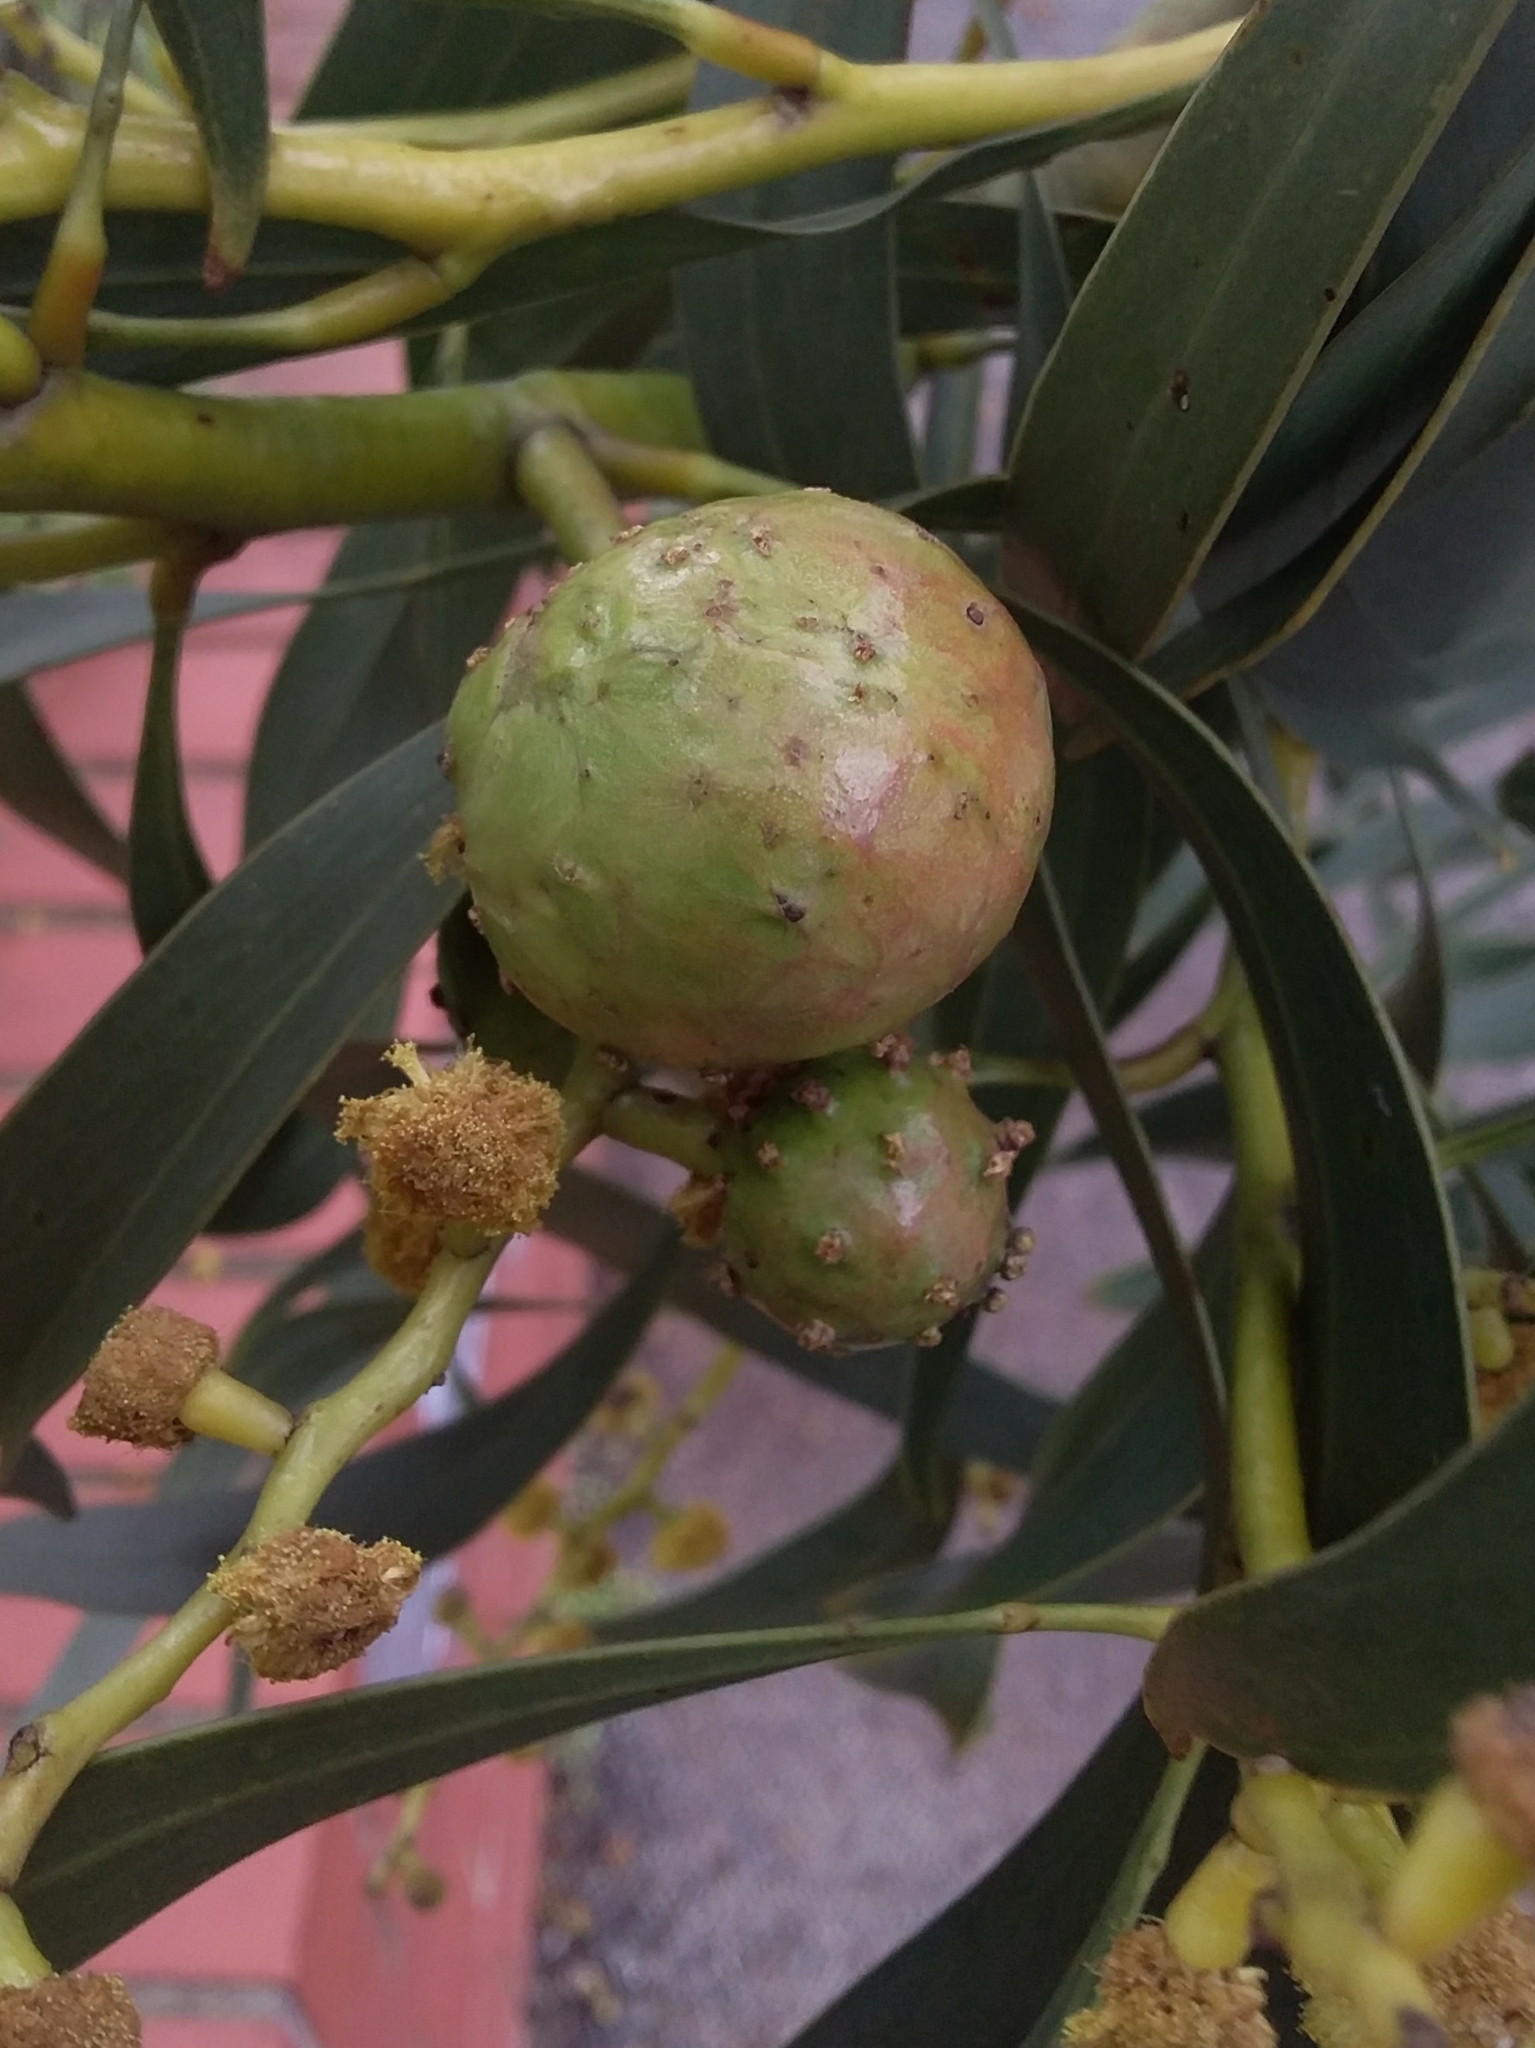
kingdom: Animalia
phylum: Arthropoda
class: Insecta
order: Hymenoptera
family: Pteromalidae
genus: Trichilogaster
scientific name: Trichilogaster signiventris
